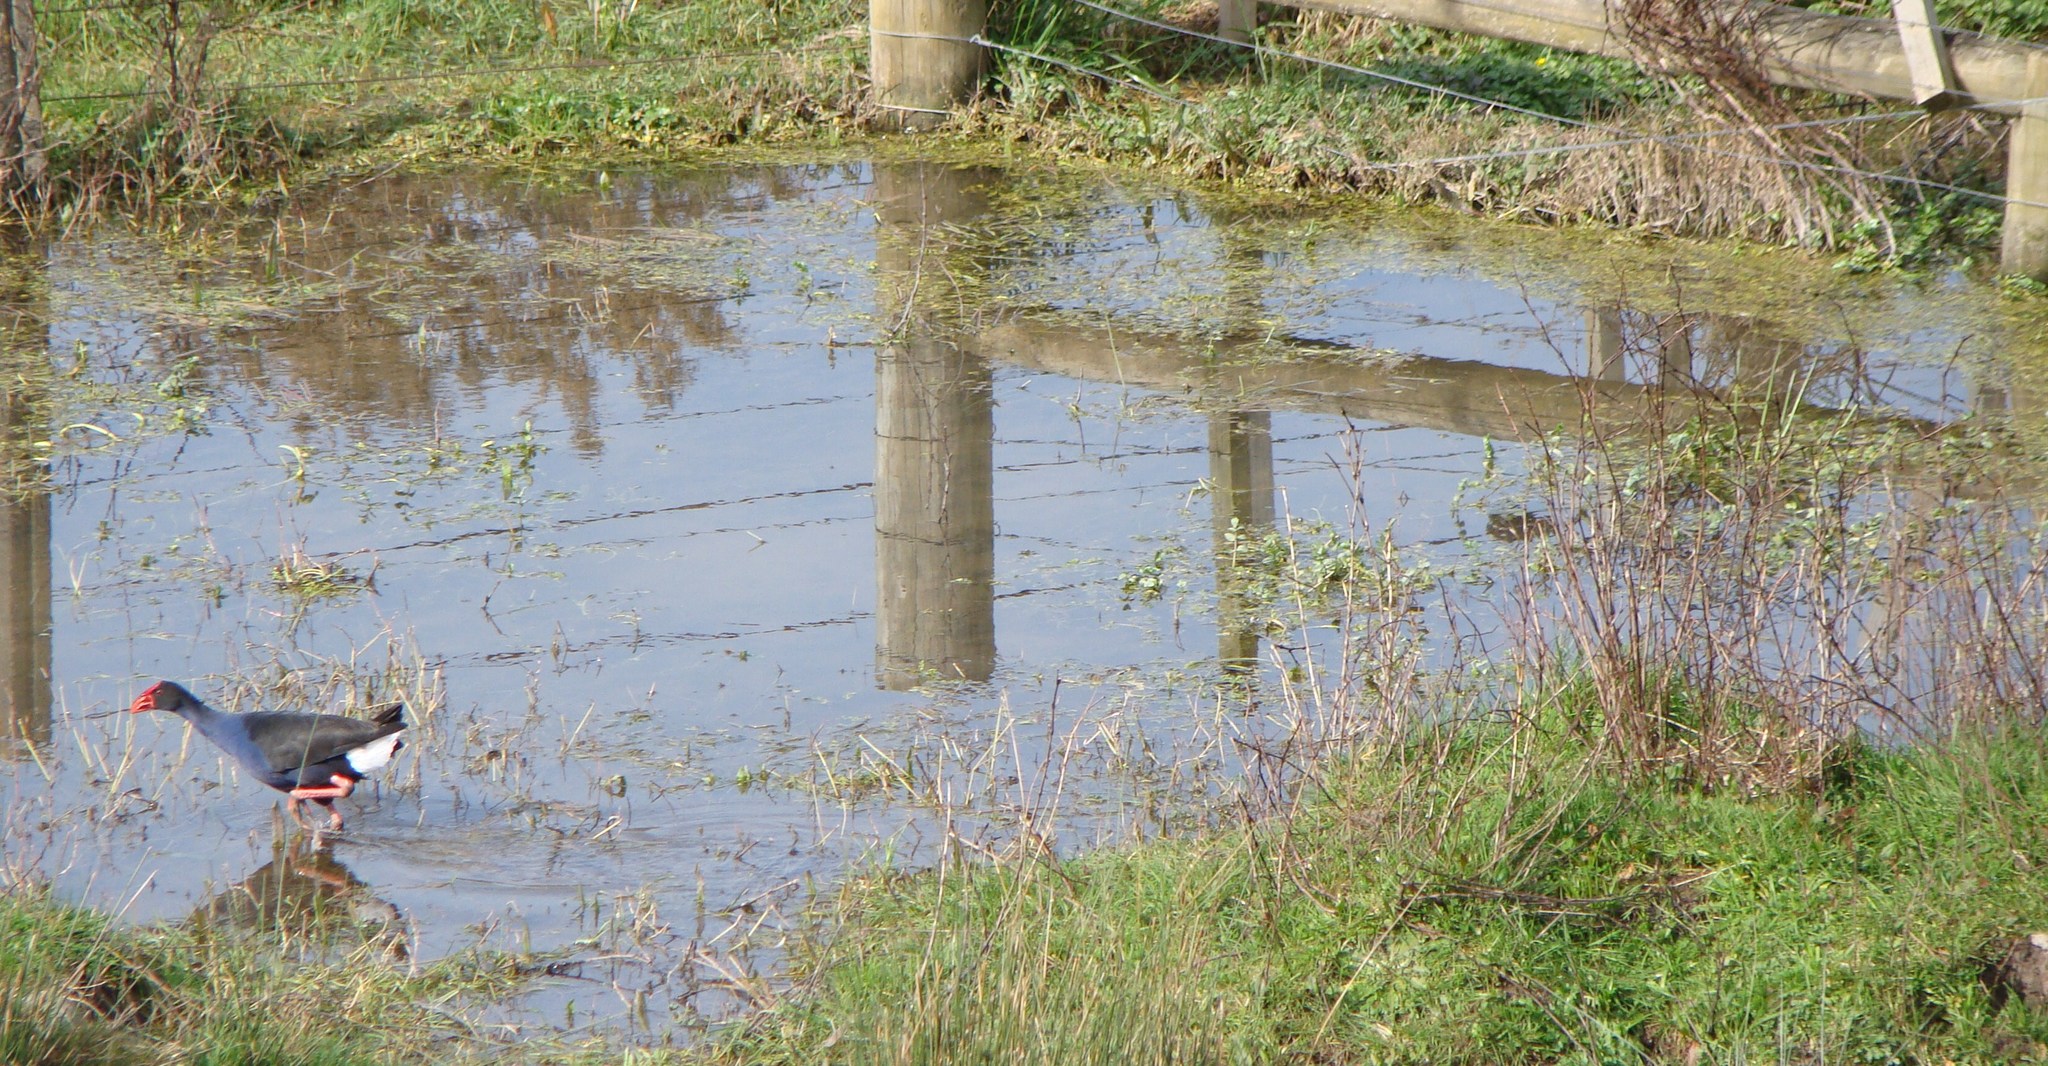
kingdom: Animalia
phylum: Chordata
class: Aves
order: Gruiformes
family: Rallidae
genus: Porphyrio
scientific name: Porphyrio melanotus
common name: Australasian swamphen
